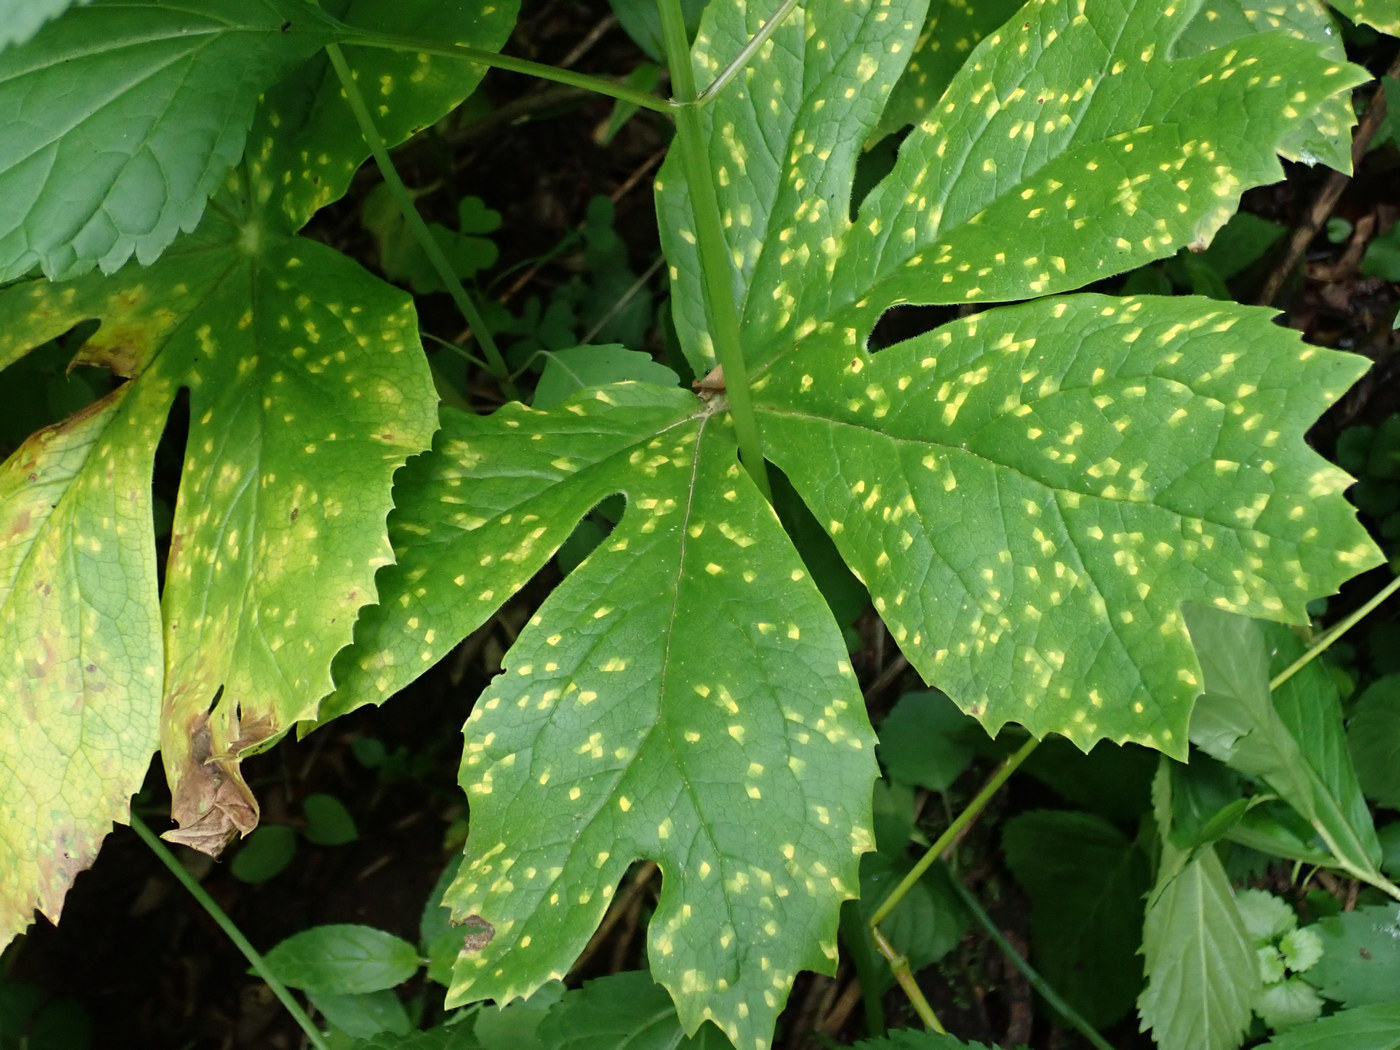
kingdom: Fungi
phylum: Basidiomycota
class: Pucciniomycetes
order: Pucciniales
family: Pucciniaceae
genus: Puccinia
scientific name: Puccinia podophylli
